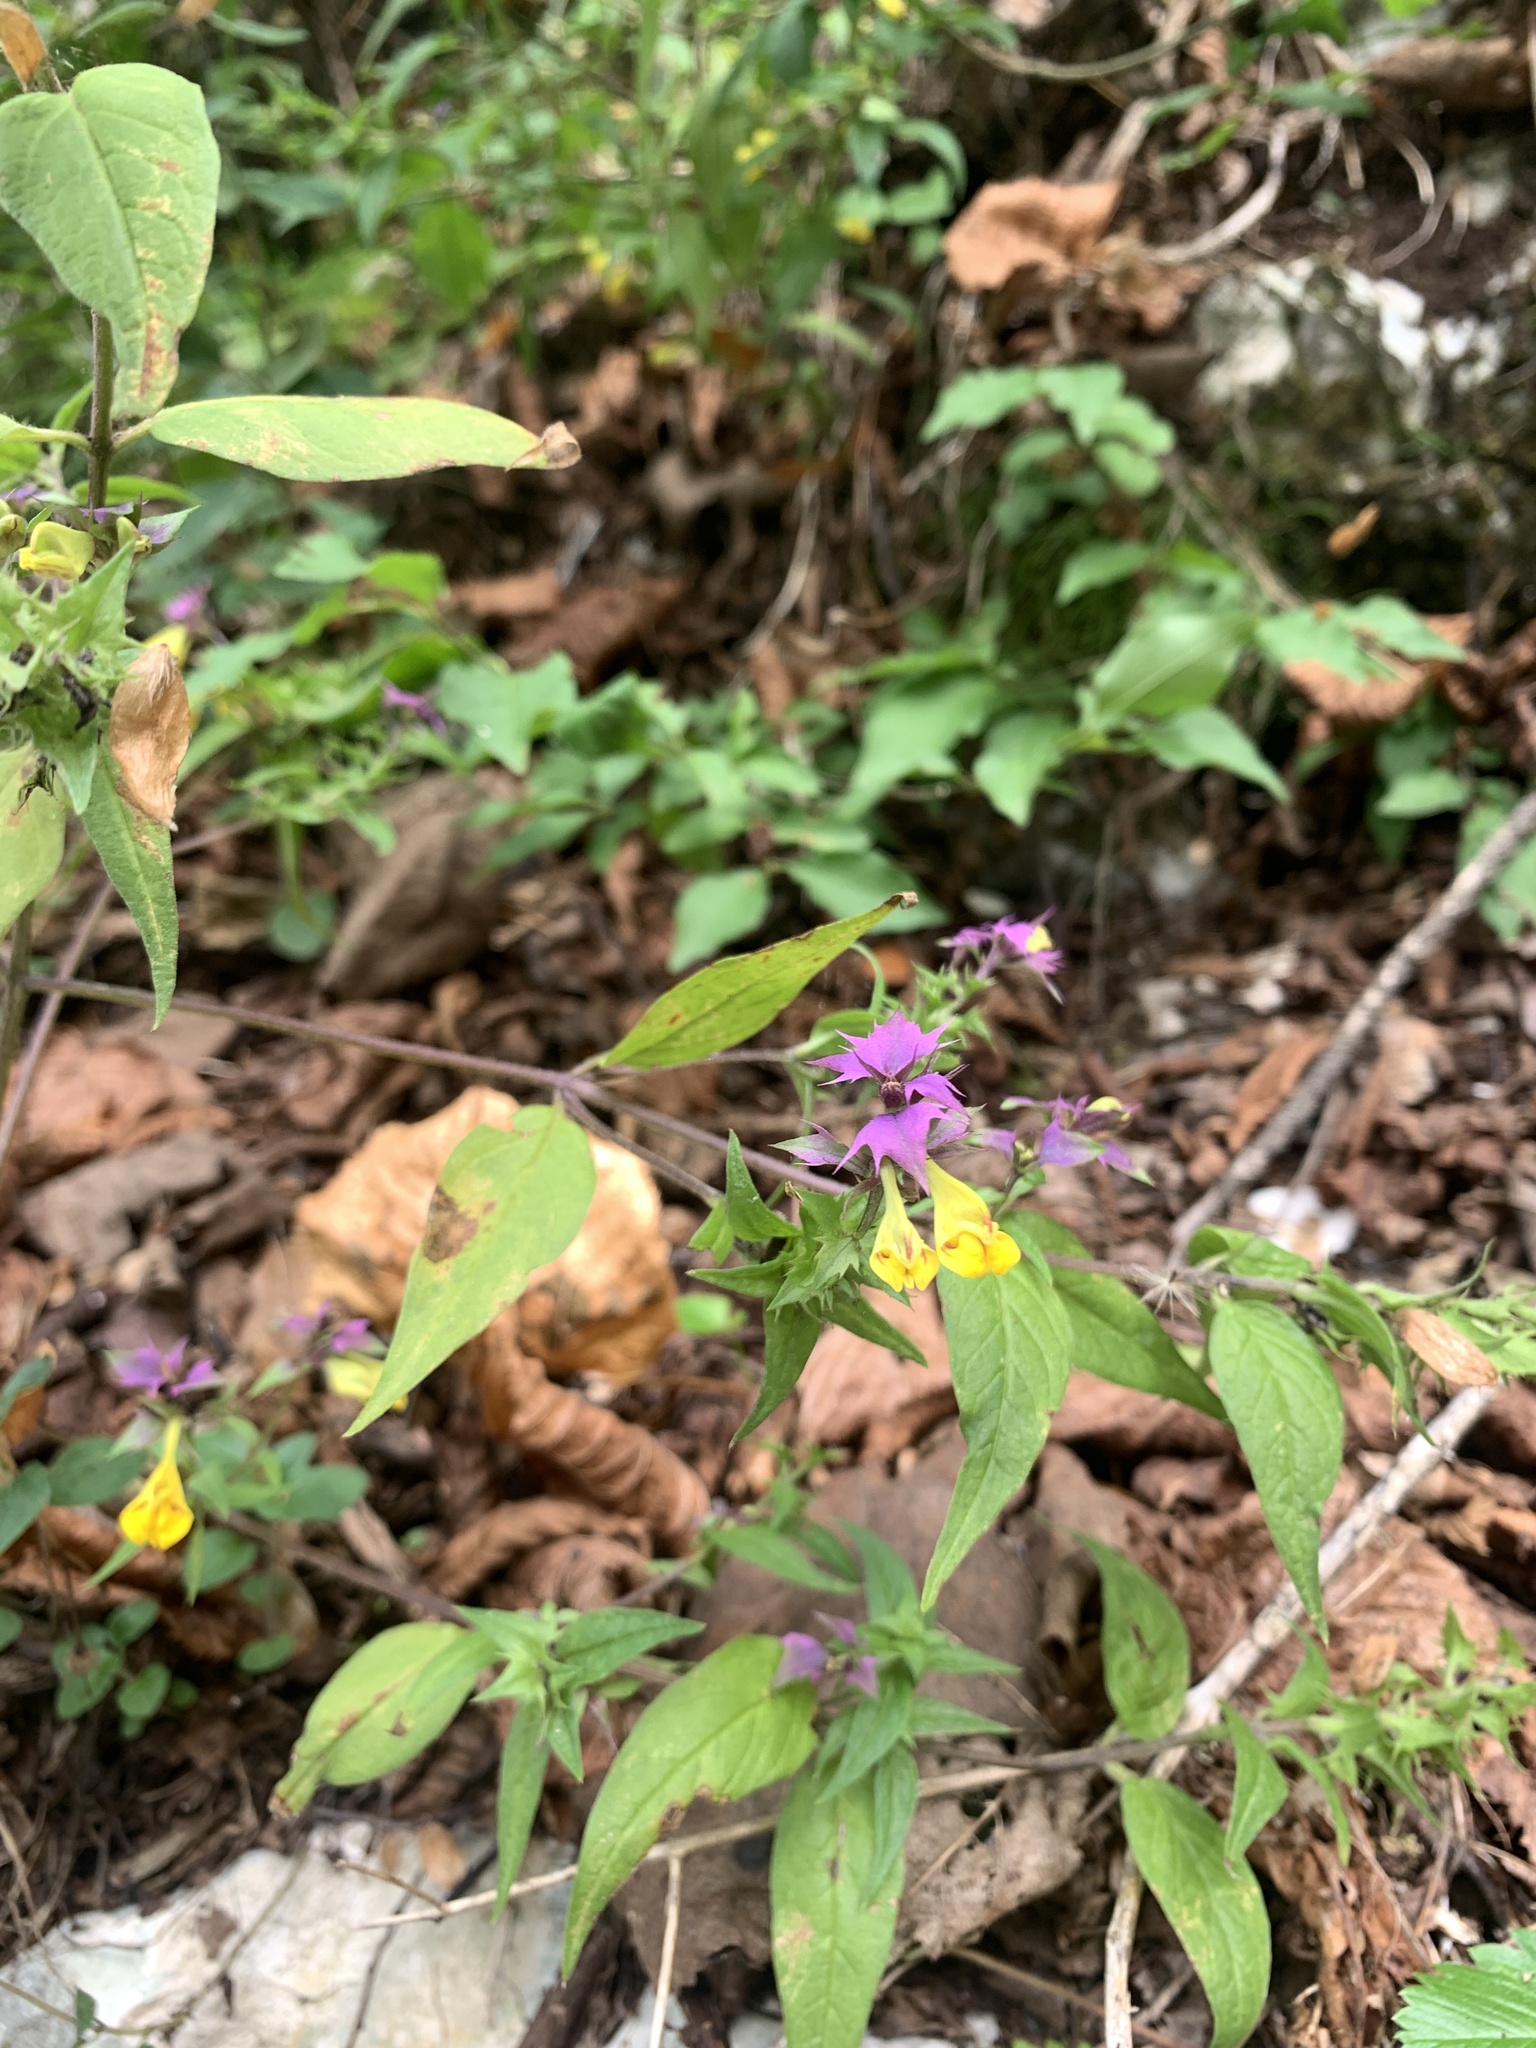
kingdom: Plantae
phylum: Tracheophyta
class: Magnoliopsida
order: Lamiales
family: Orobanchaceae
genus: Melampyrum
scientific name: Melampyrum nemorosum
